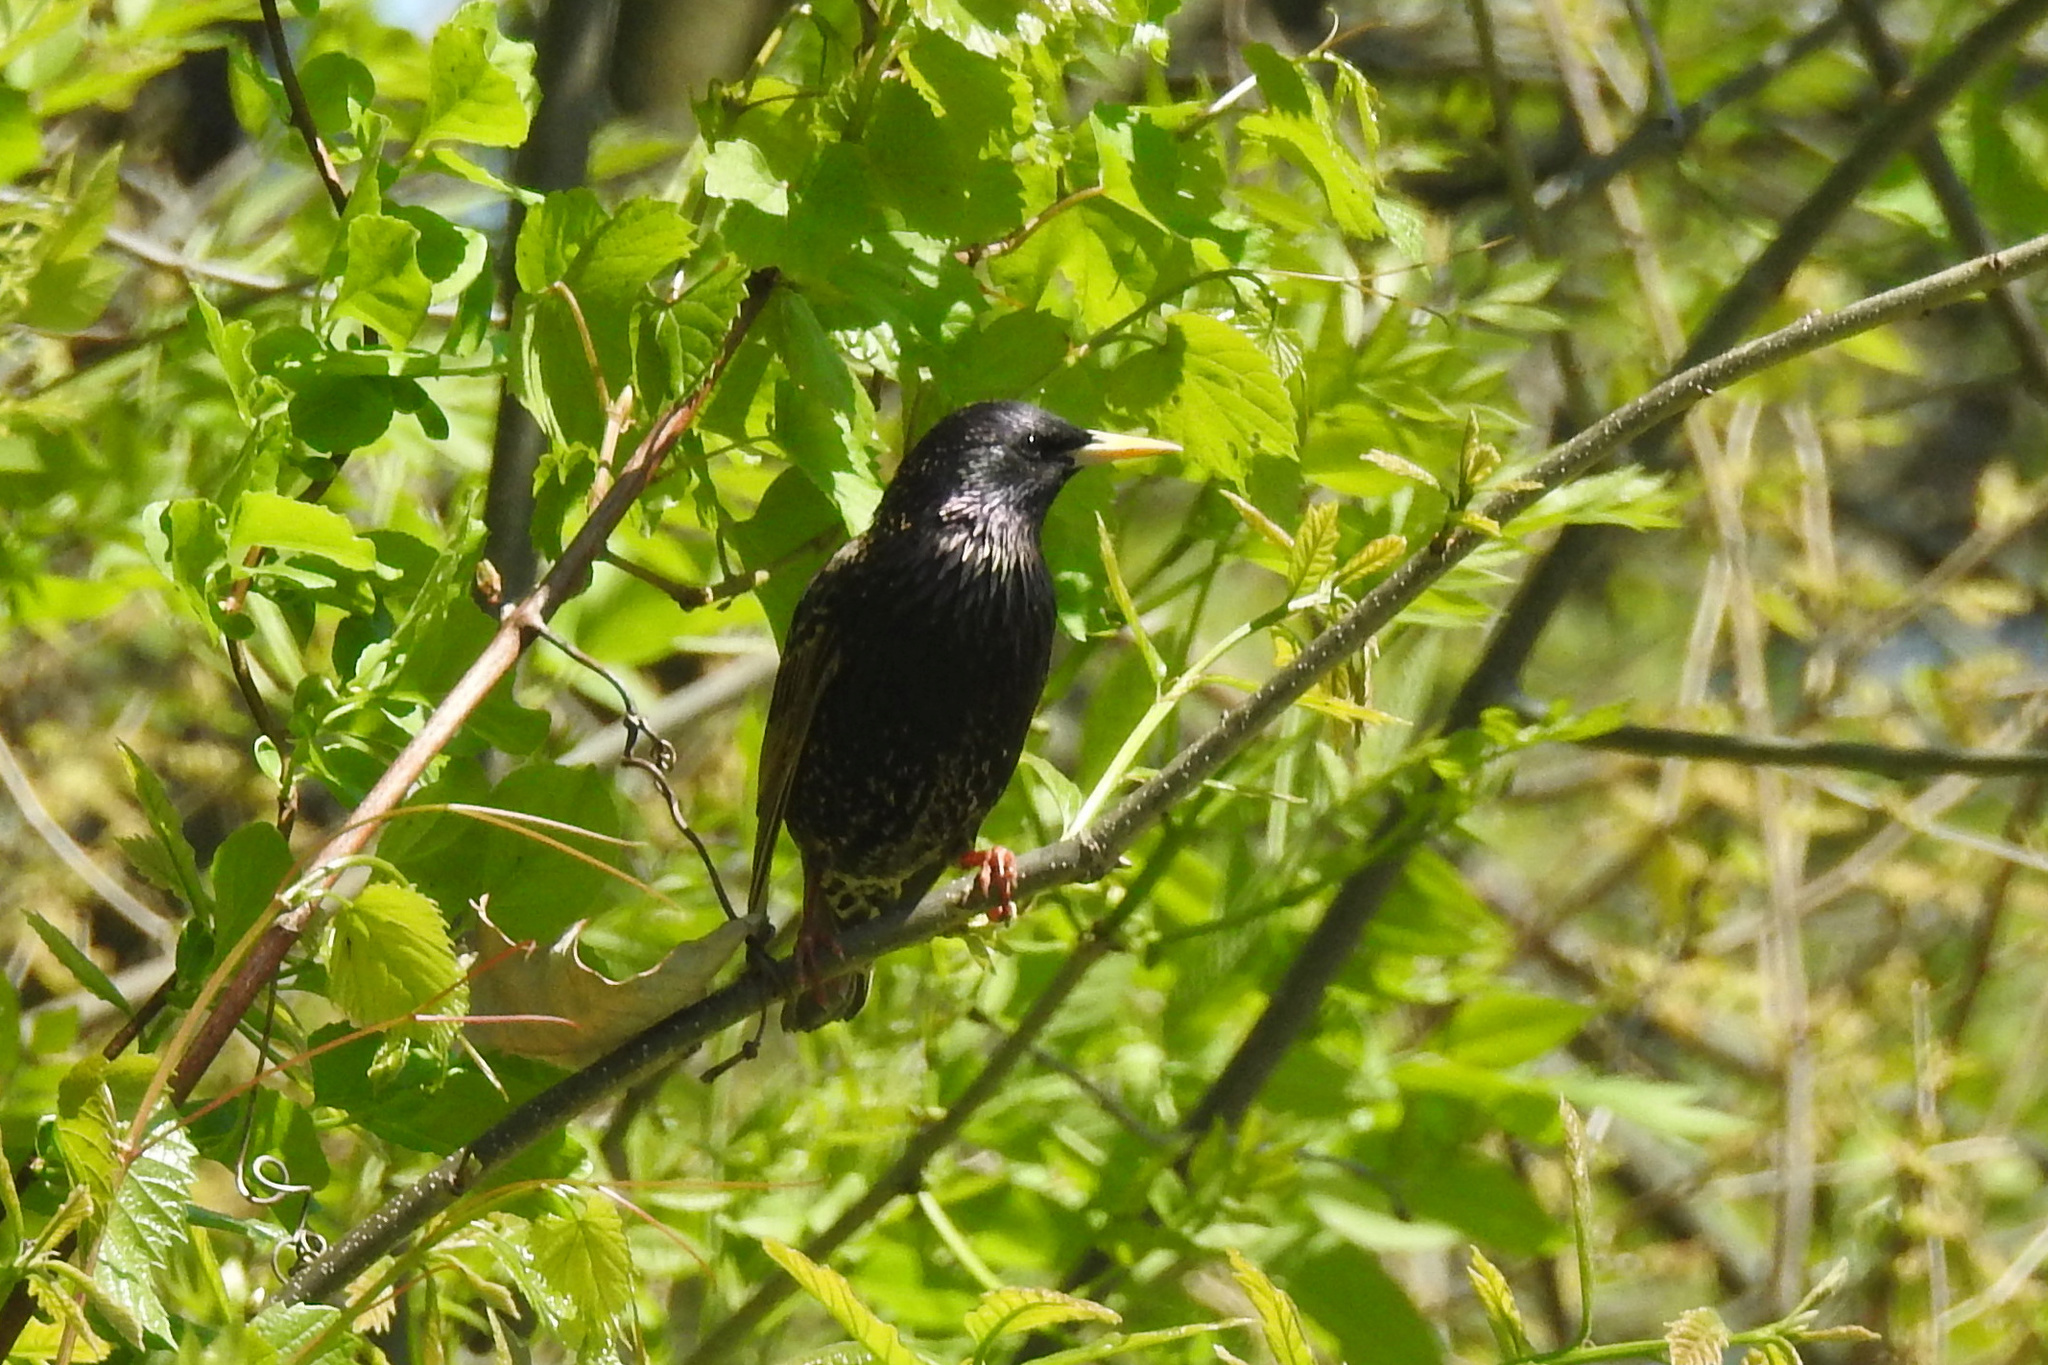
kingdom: Animalia
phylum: Chordata
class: Aves
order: Passeriformes
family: Sturnidae
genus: Sturnus
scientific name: Sturnus vulgaris
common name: Common starling
